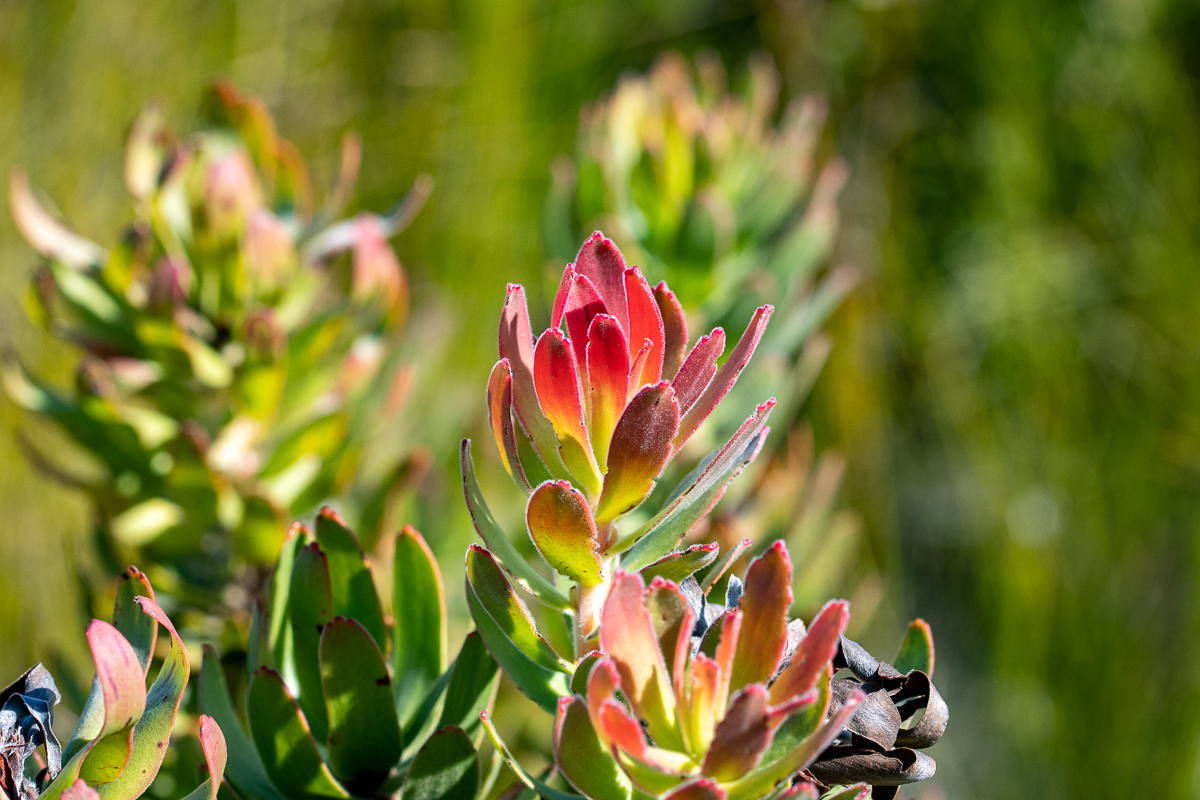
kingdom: Plantae
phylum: Tracheophyta
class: Magnoliopsida
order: Proteales
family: Proteaceae
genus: Mimetes
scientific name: Mimetes cucullatus
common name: Common pagoda
